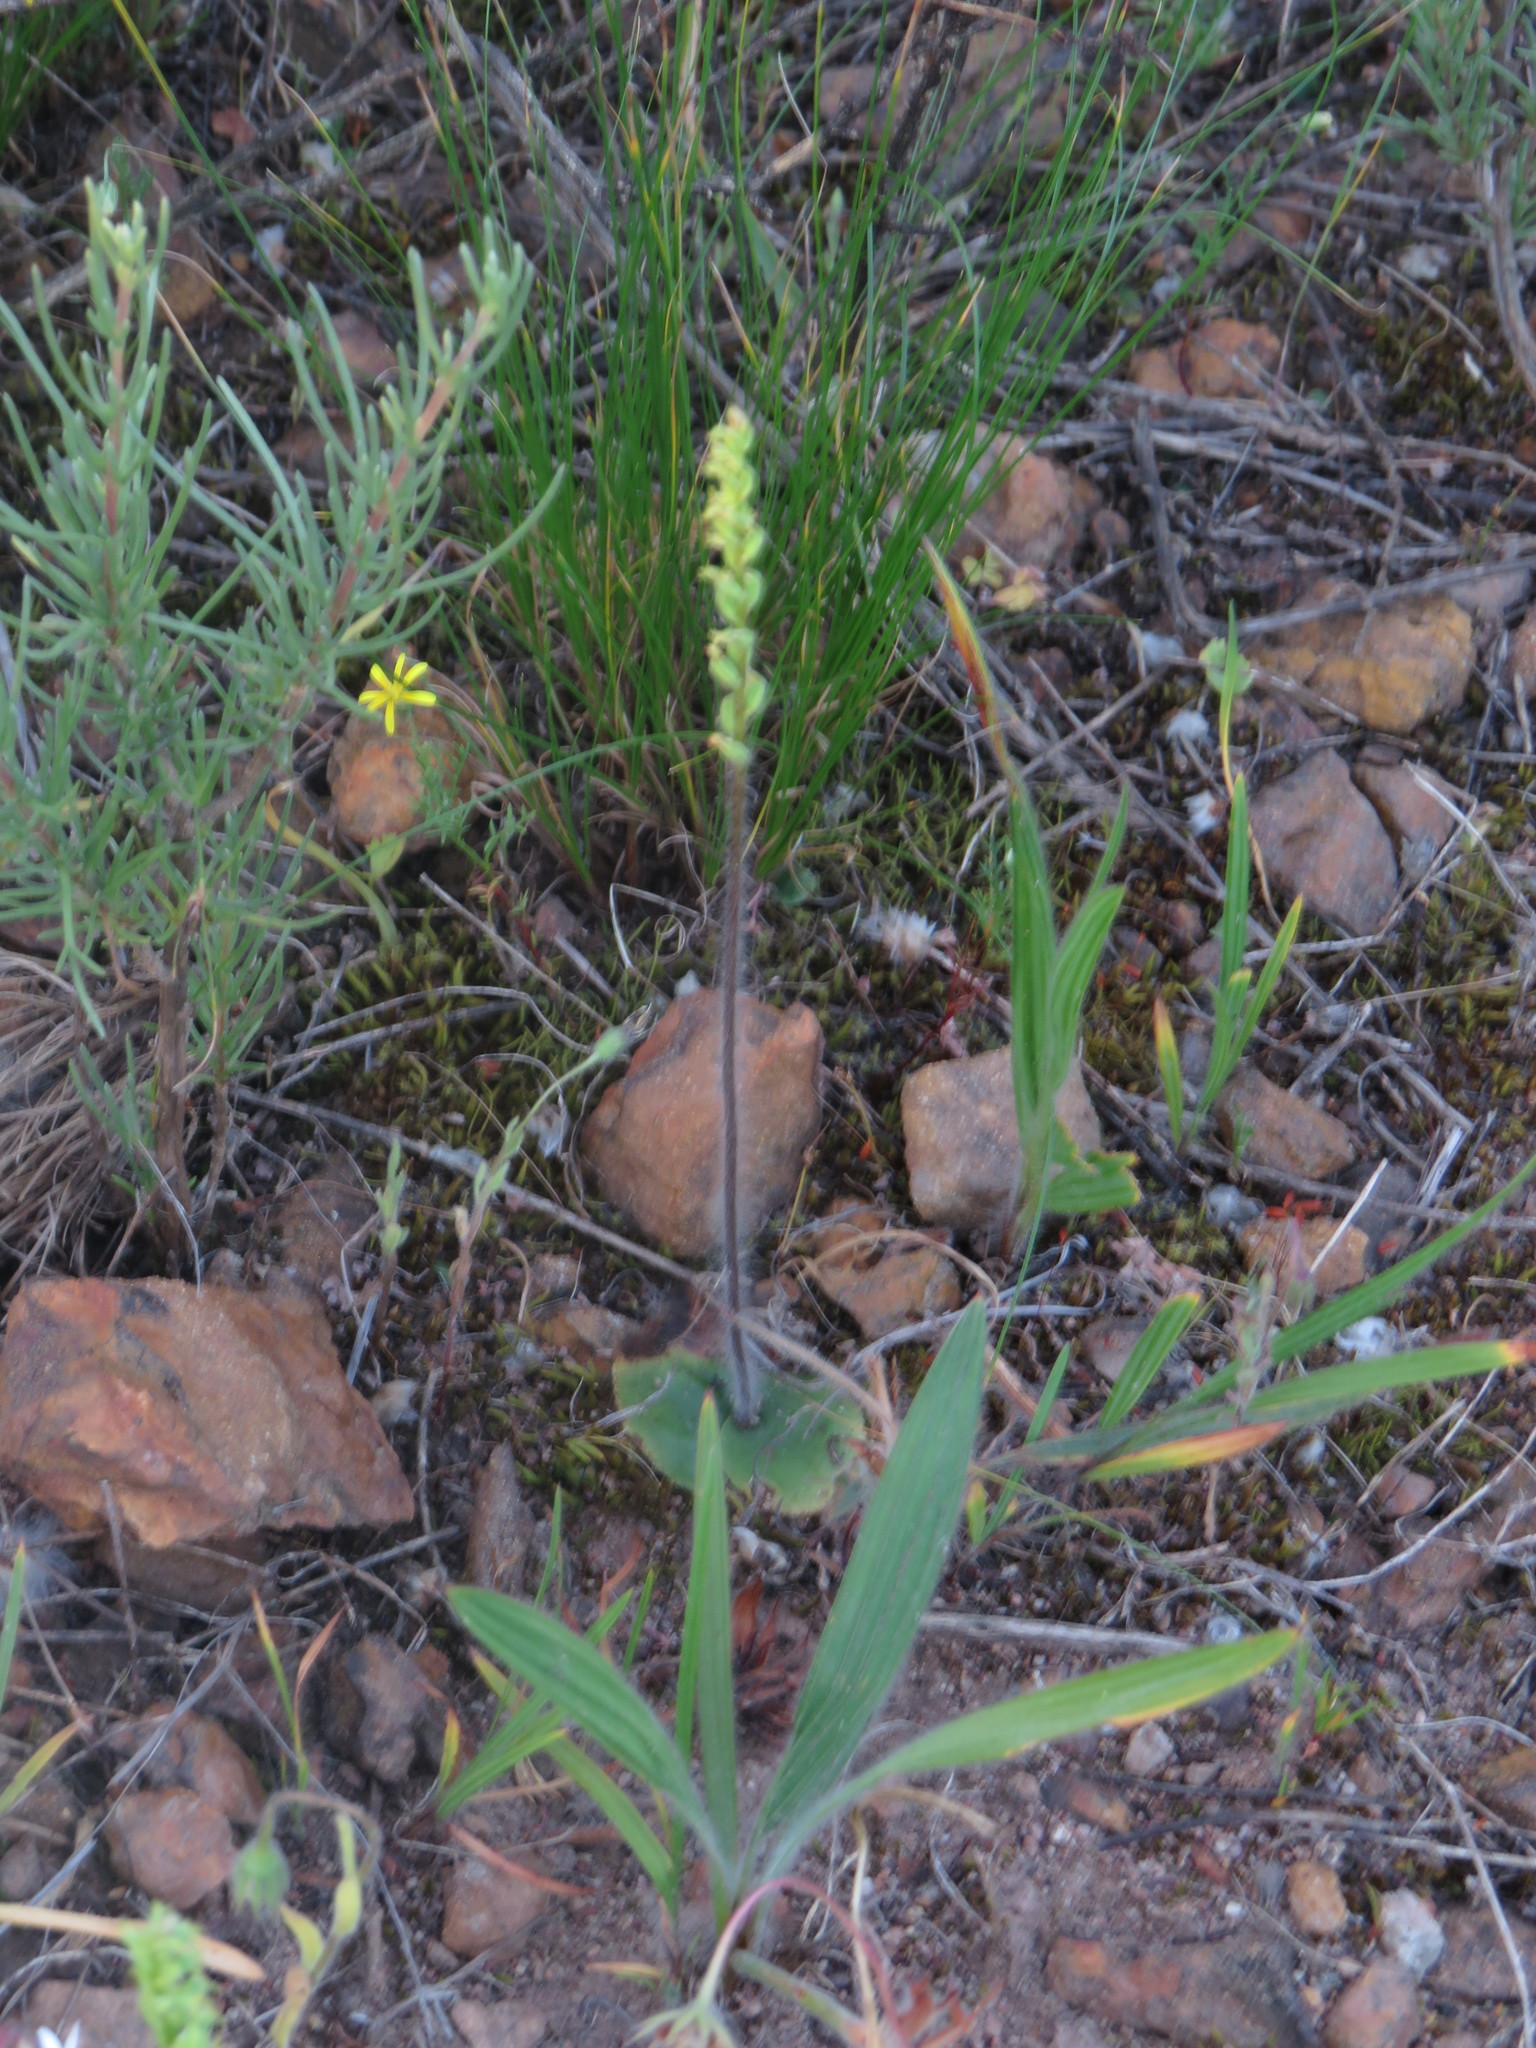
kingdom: Plantae
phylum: Tracheophyta
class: Liliopsida
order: Asparagales
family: Orchidaceae
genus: Holothrix
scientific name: Holothrix villosa
